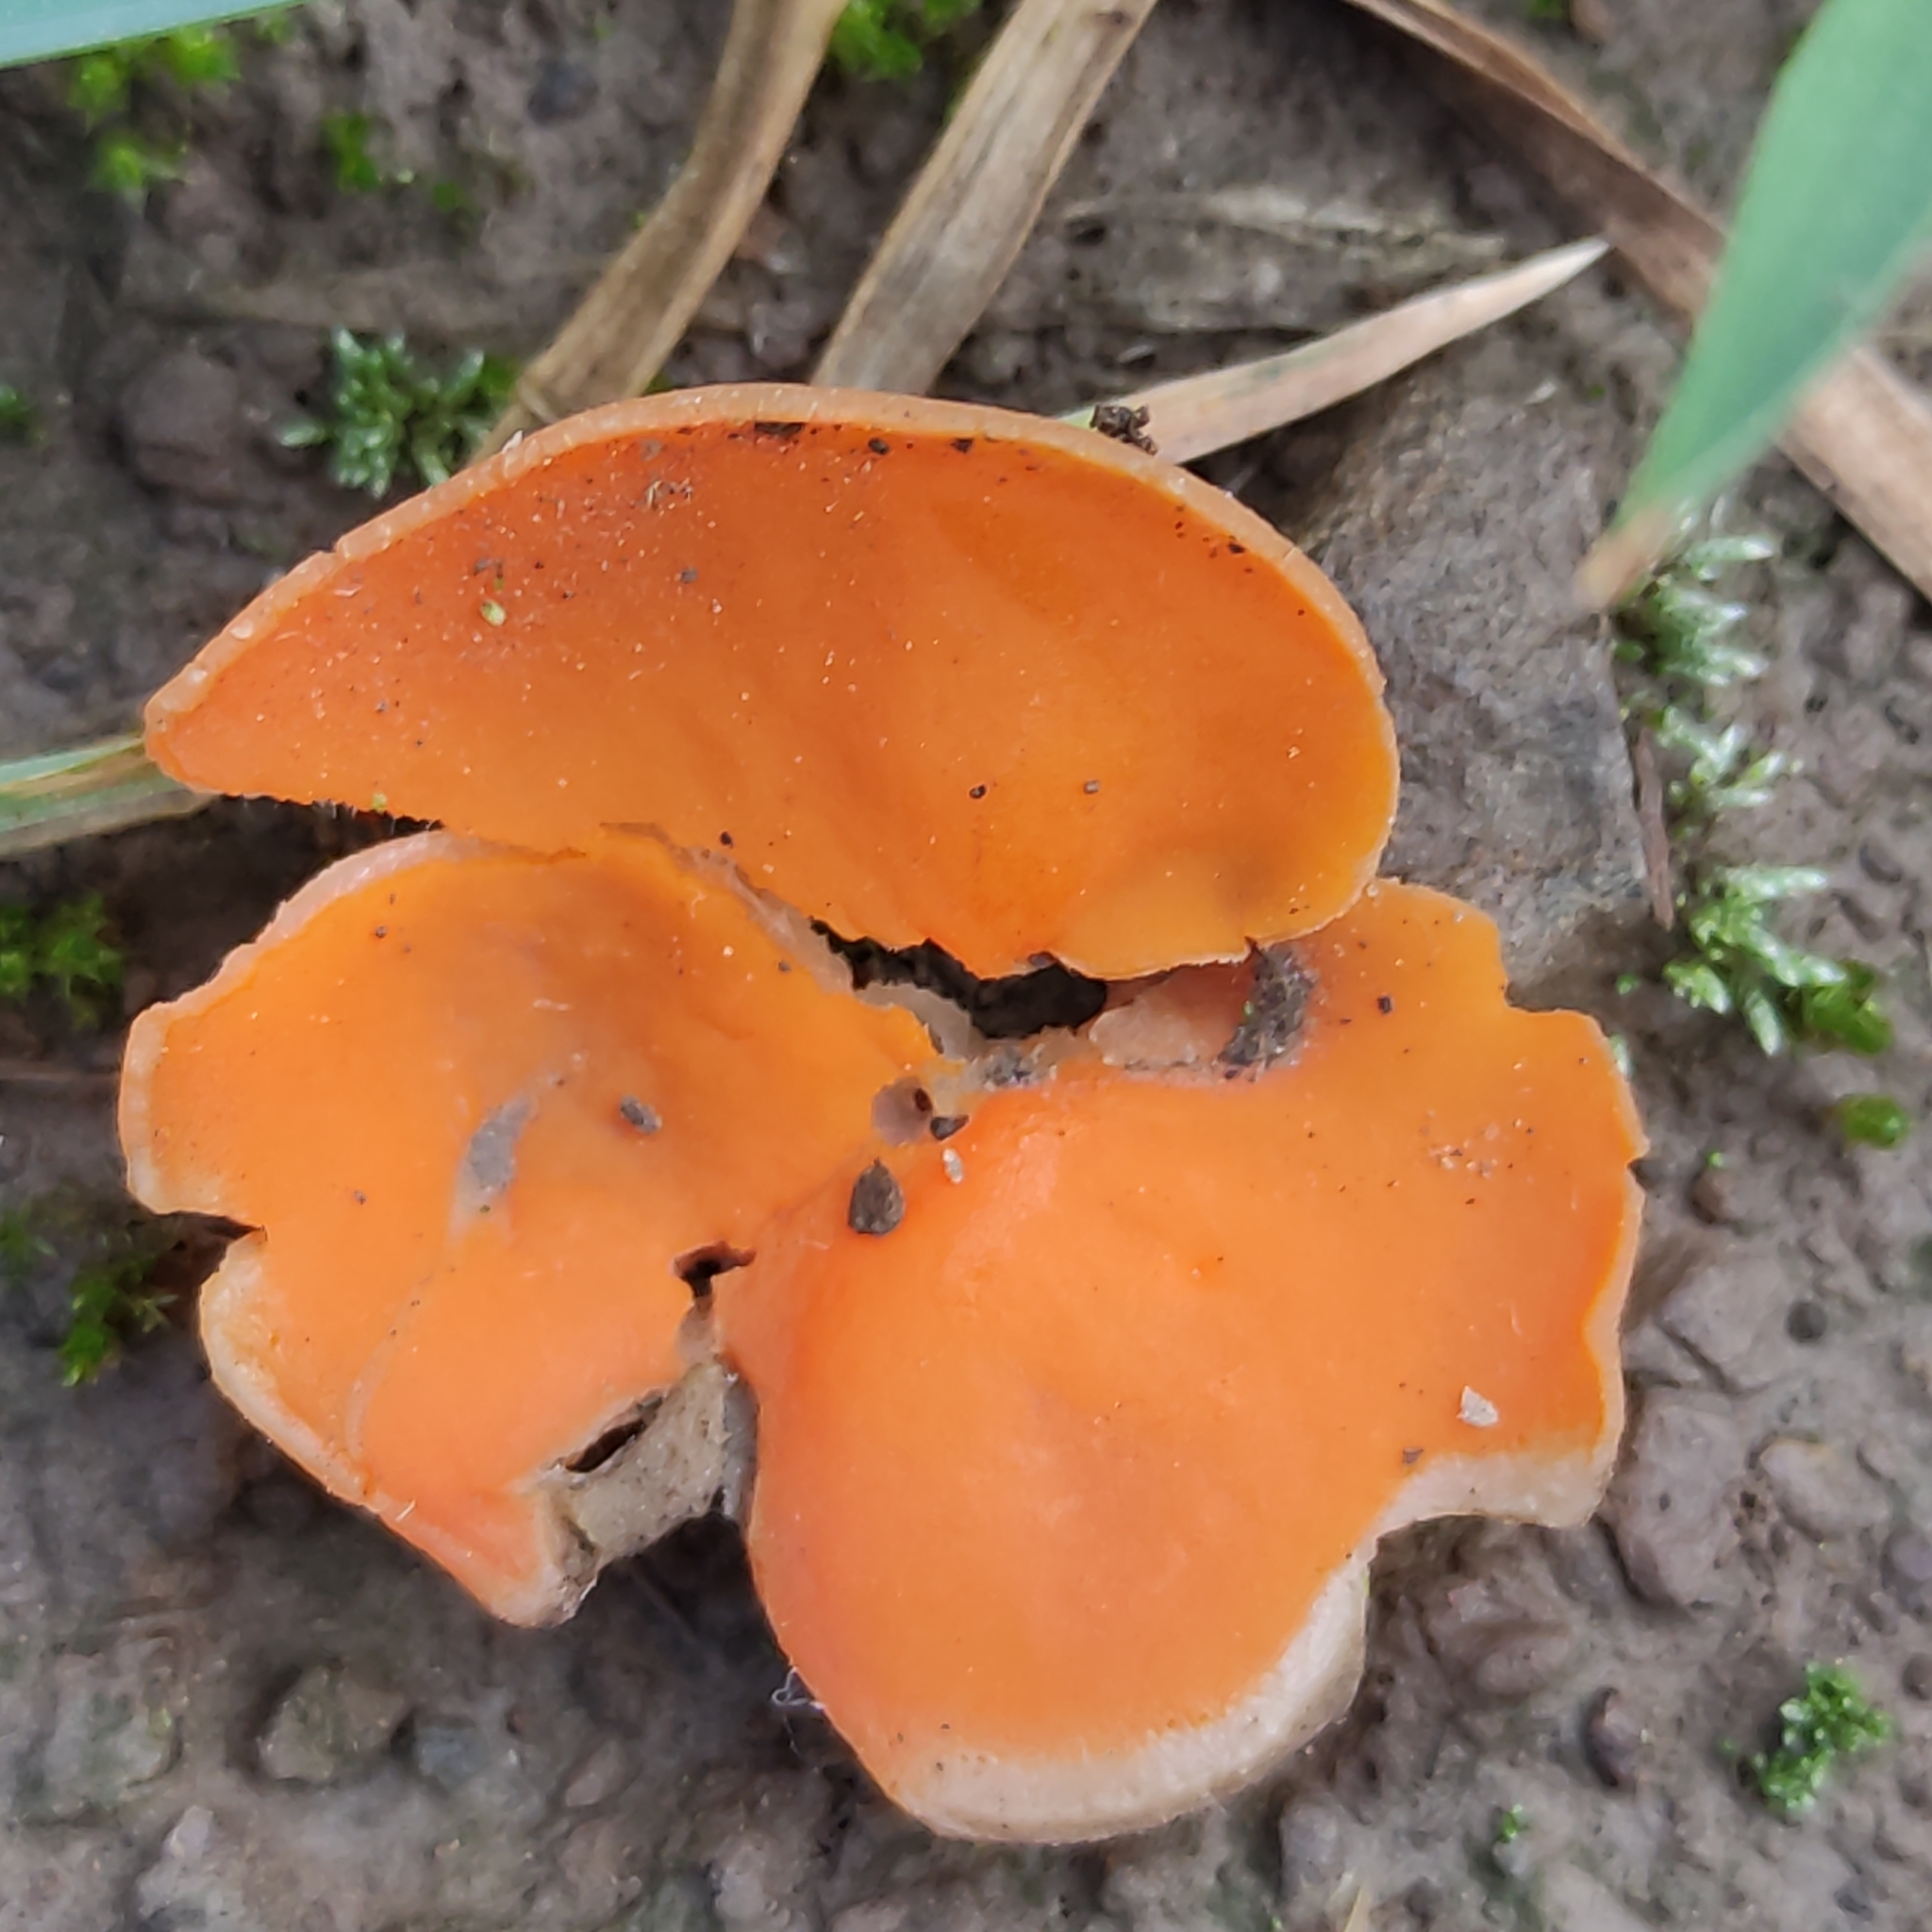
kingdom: Fungi
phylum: Ascomycota
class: Pezizomycetes
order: Pezizales
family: Pyronemataceae
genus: Aleuria
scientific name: Aleuria aurantia
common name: Orange peel fungus
